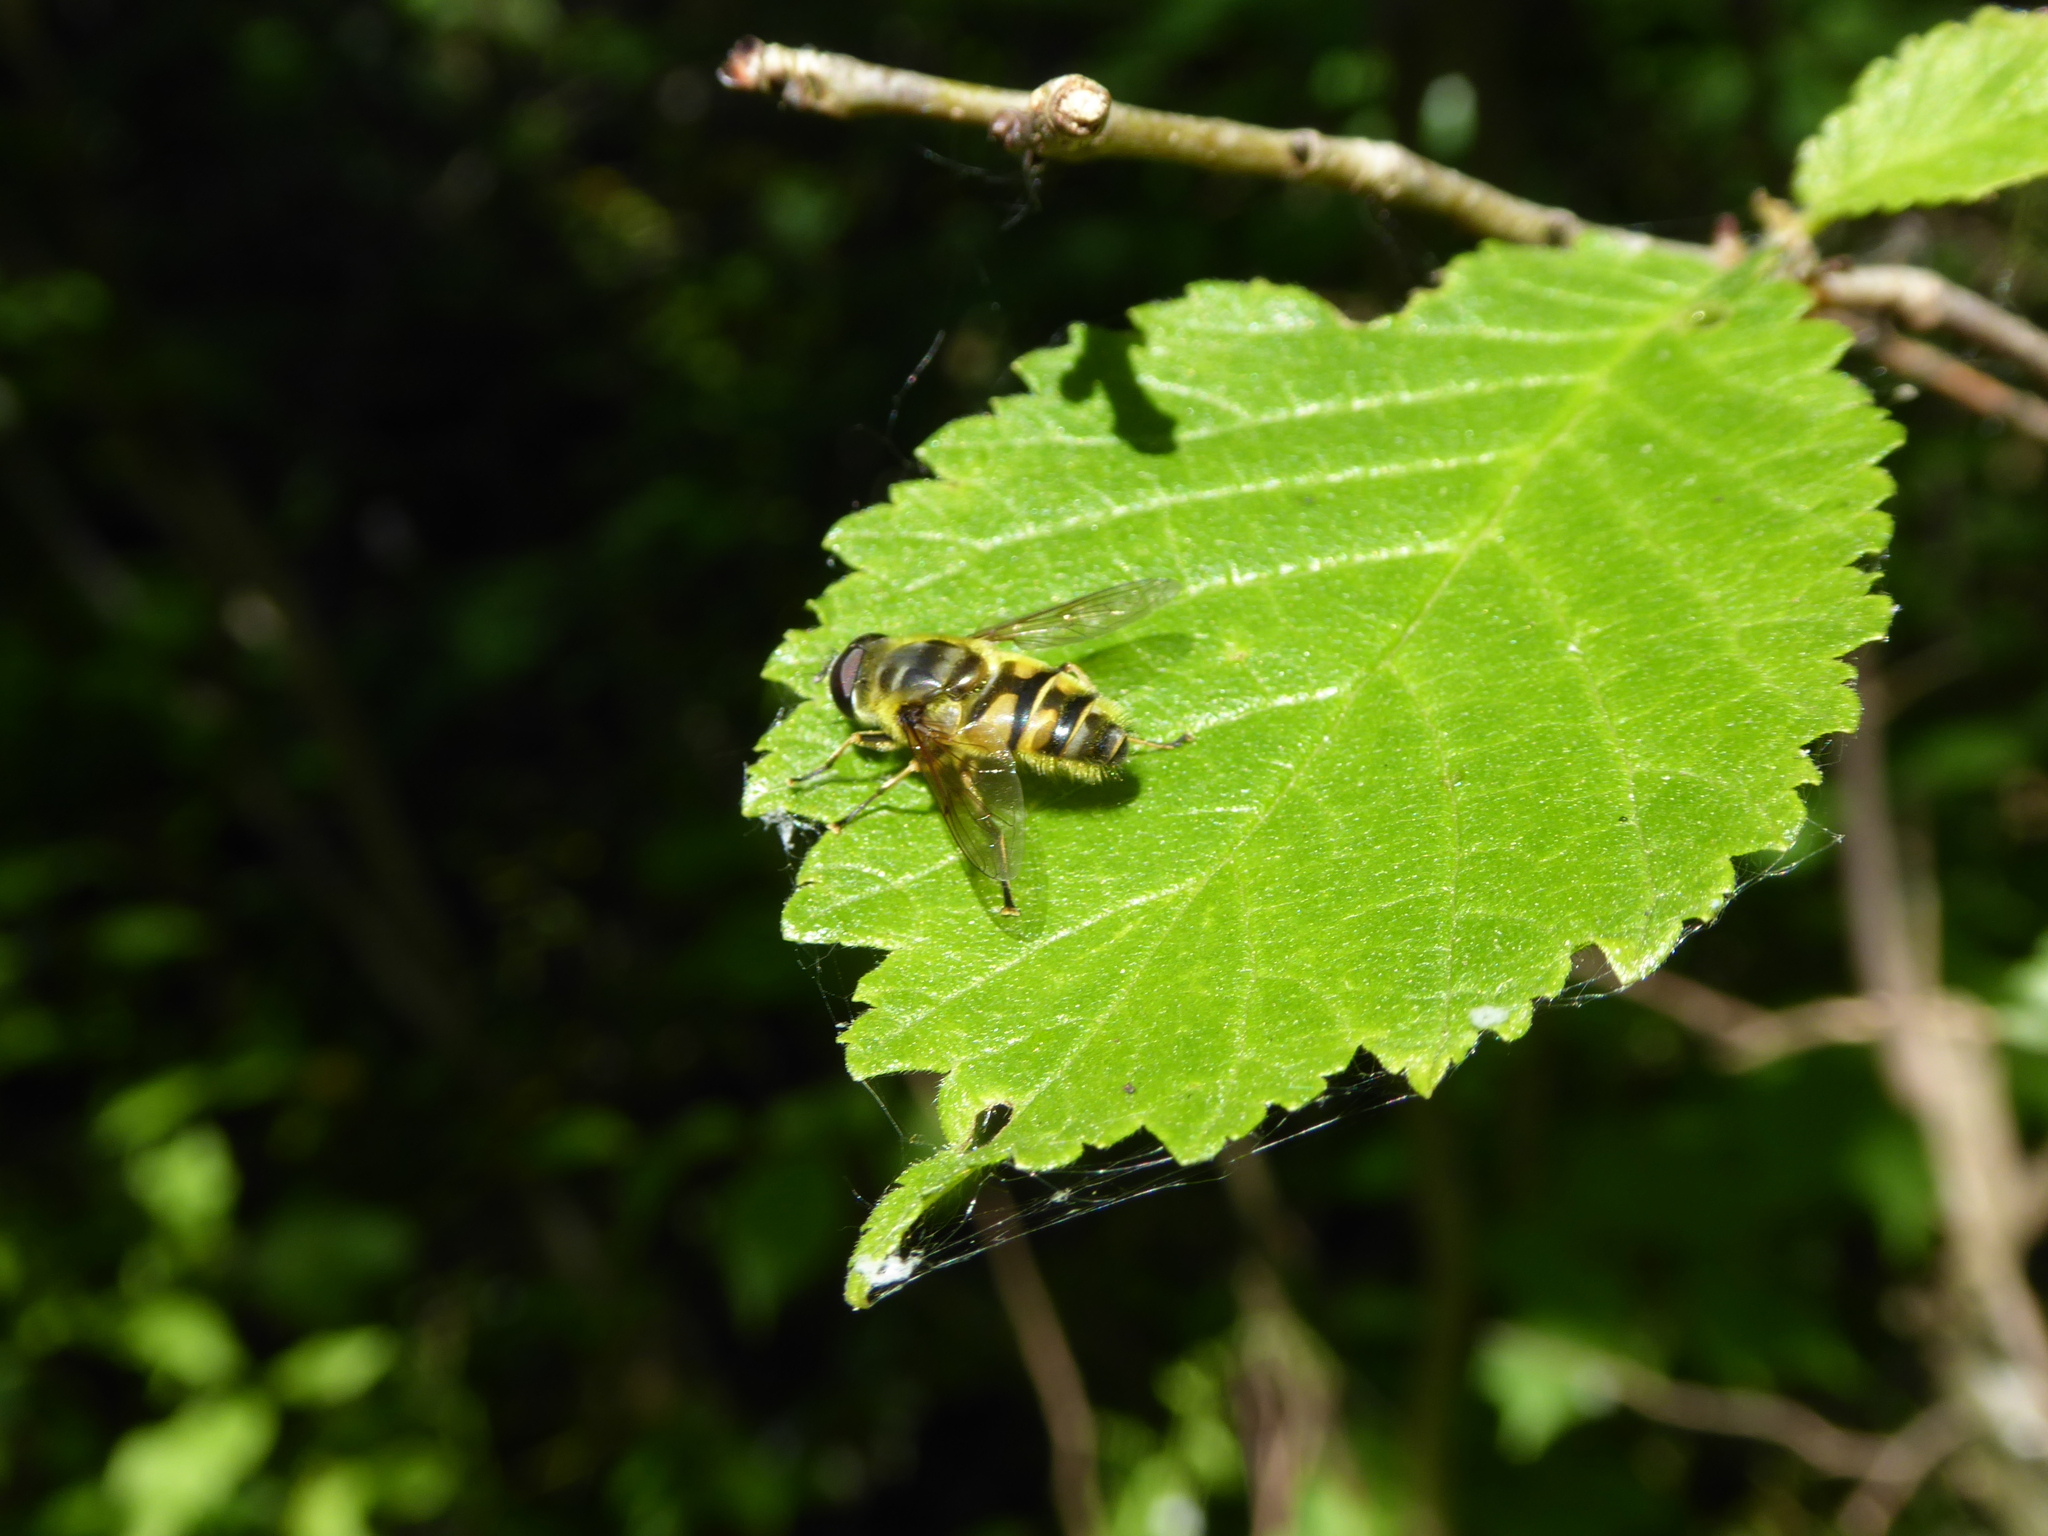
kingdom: Animalia
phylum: Arthropoda
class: Insecta
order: Diptera
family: Syrphidae
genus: Myathropa
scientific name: Myathropa florea
